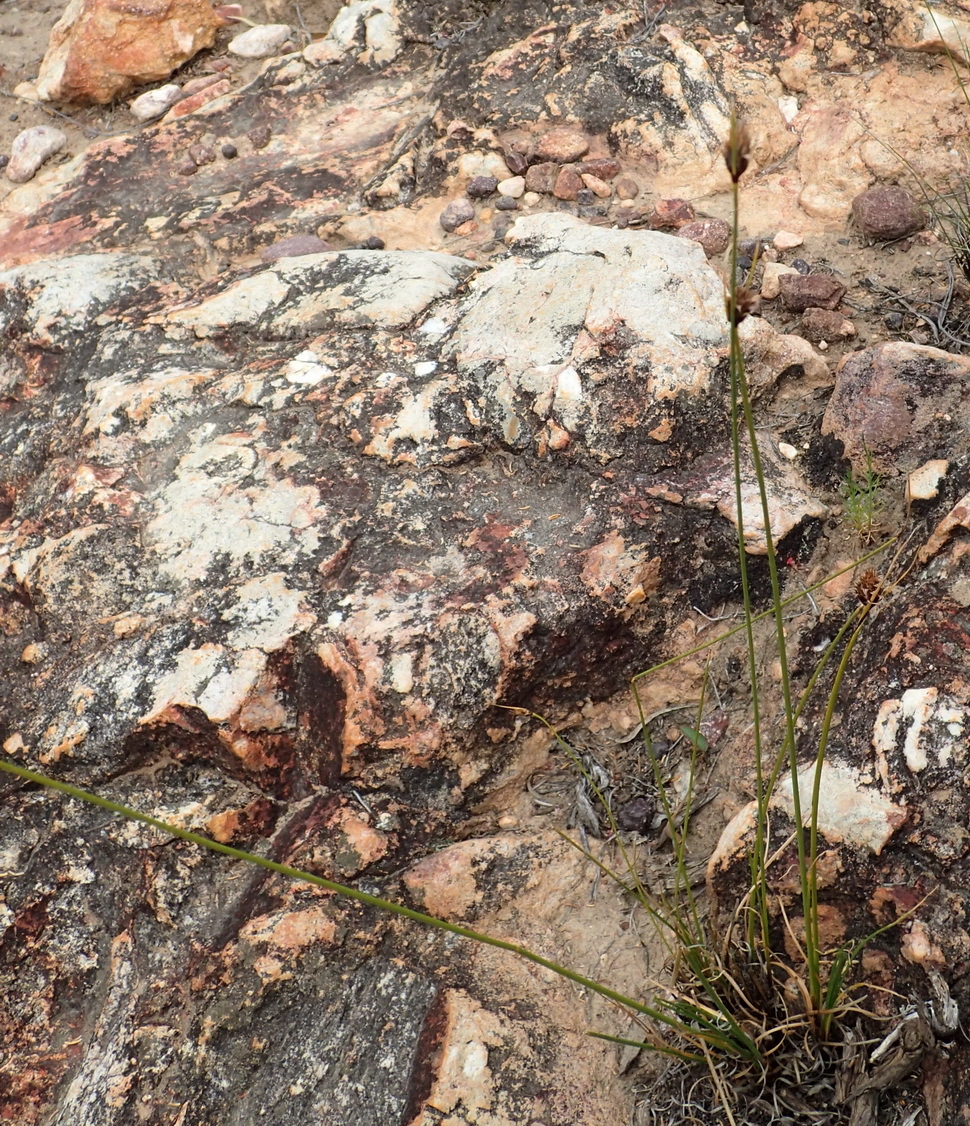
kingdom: Plantae
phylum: Tracheophyta
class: Liliopsida
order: Poales
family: Cyperaceae
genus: Ficinia
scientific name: Ficinia nigrescens
